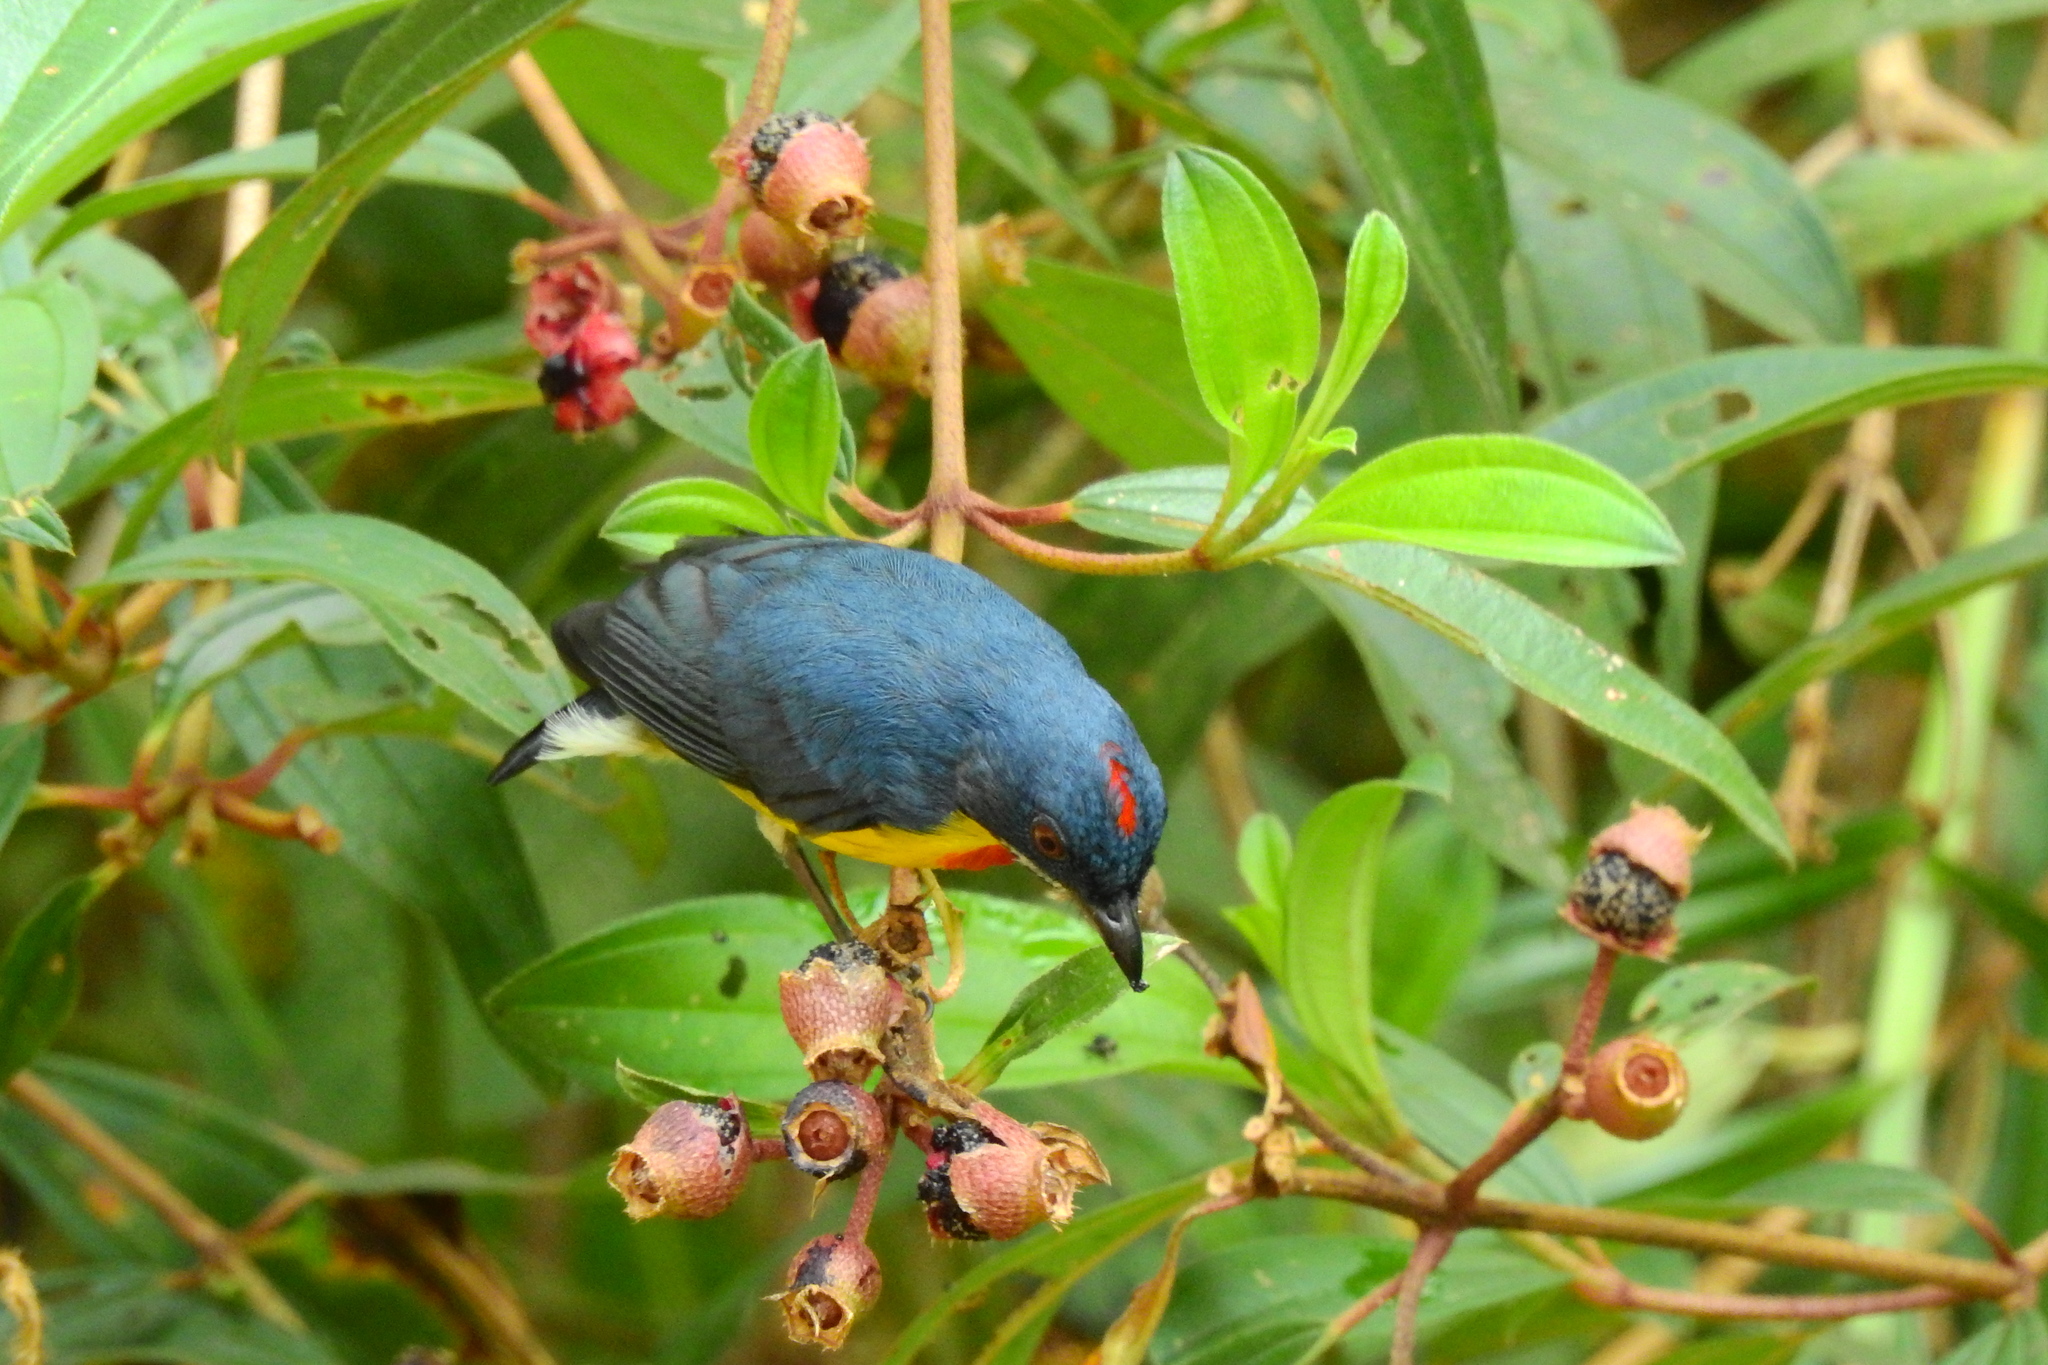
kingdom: Animalia
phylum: Chordata
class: Aves
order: Passeriformes
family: Dicaeidae
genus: Prionochilus
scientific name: Prionochilus percussus
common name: Crimson-breasted flowerpecker
